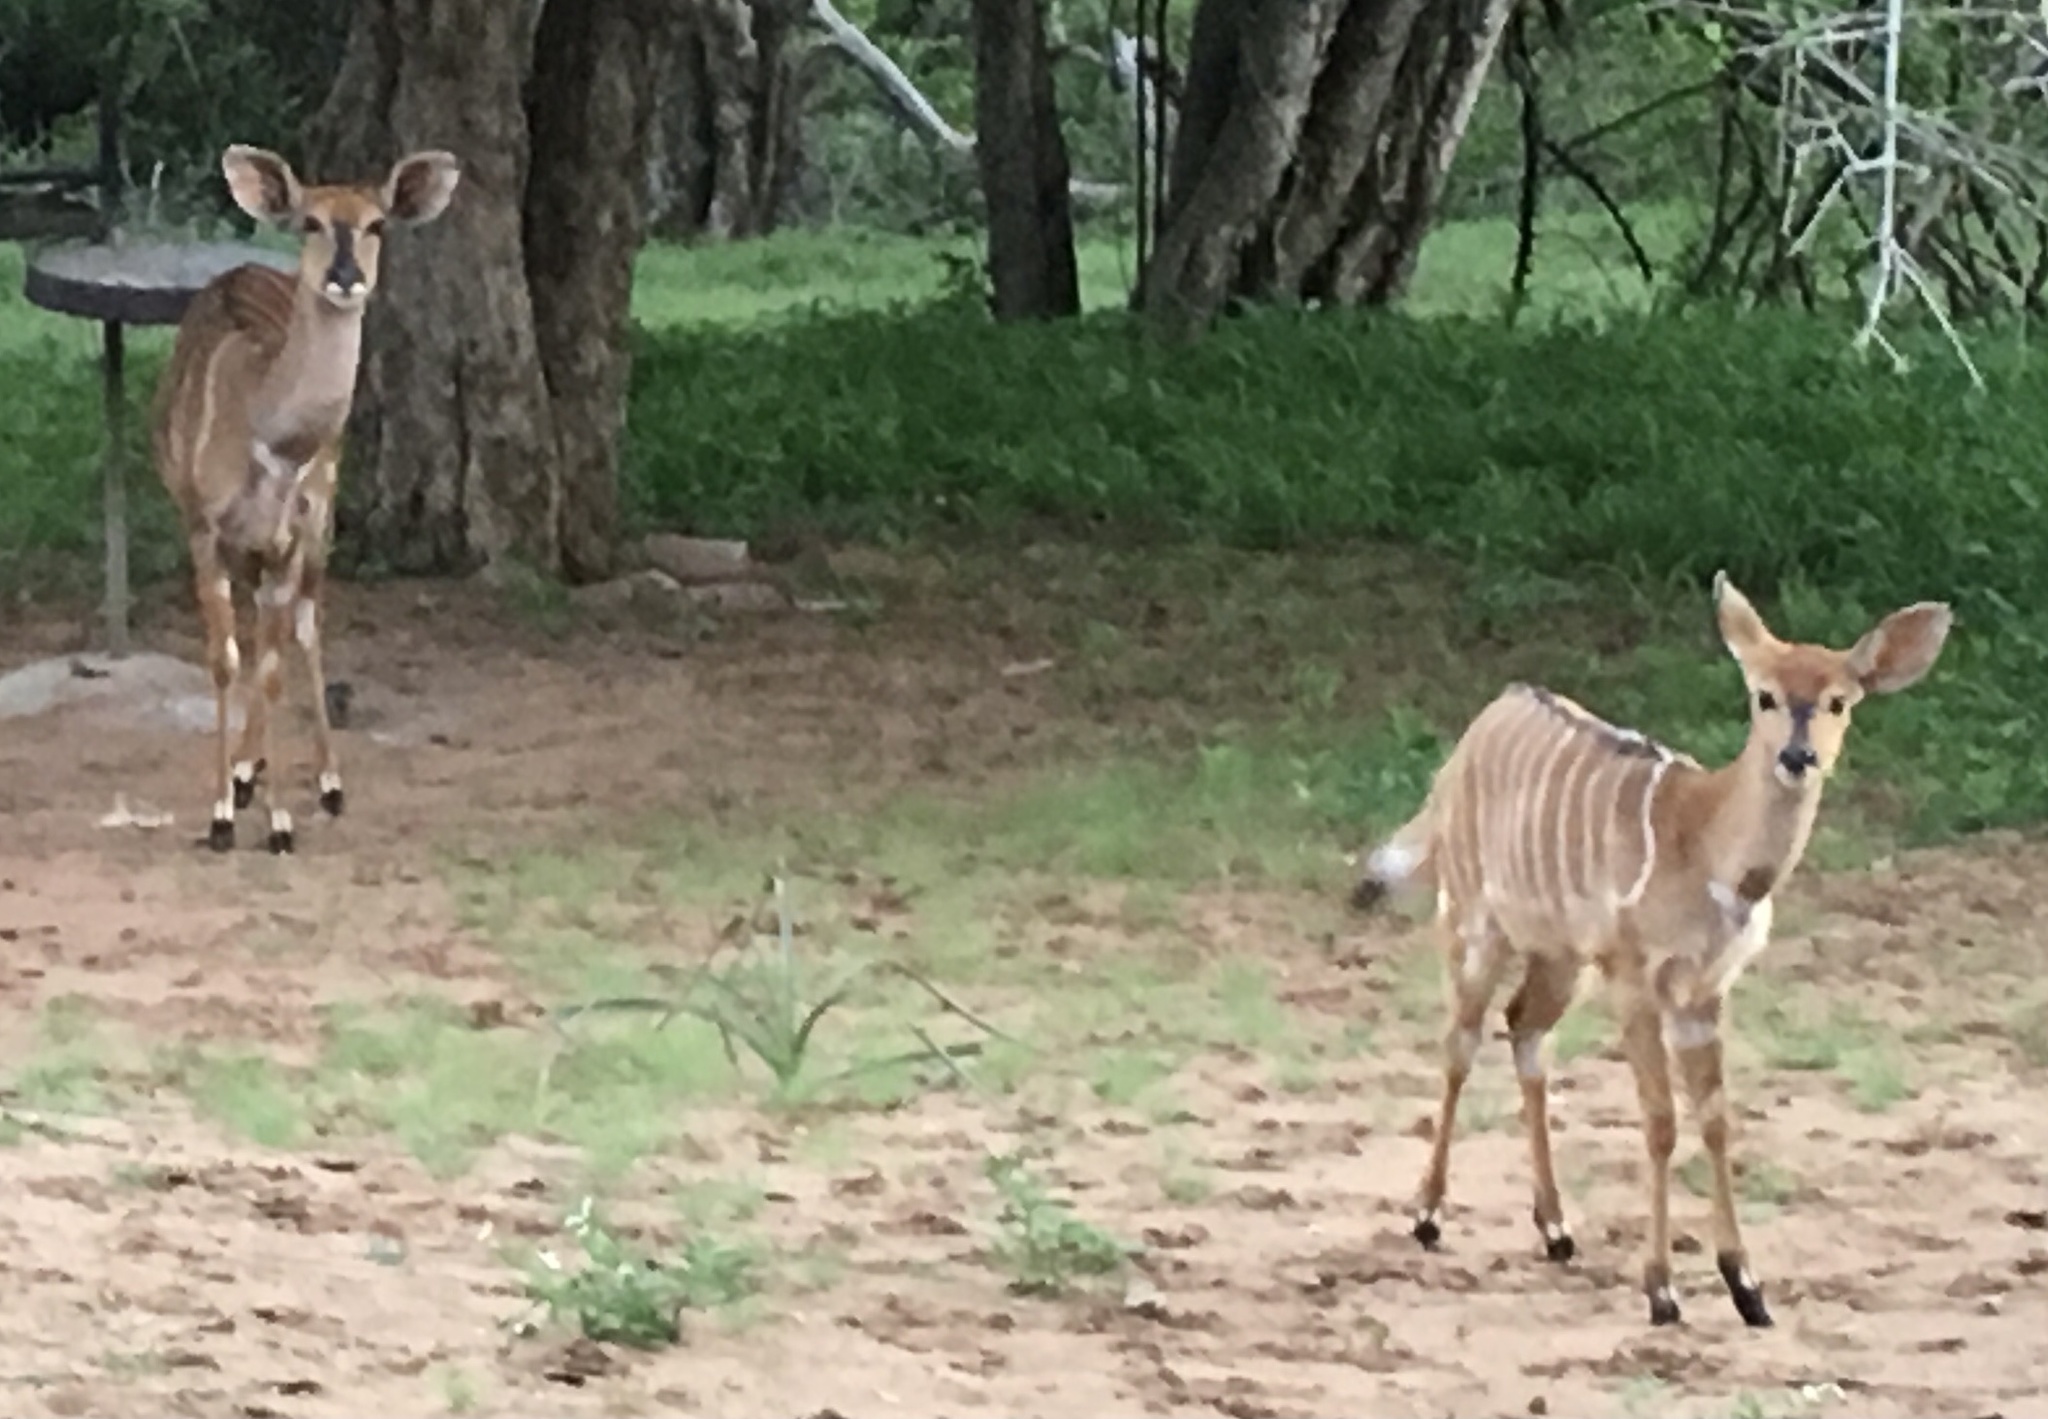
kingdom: Animalia
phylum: Chordata
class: Mammalia
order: Artiodactyla
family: Bovidae
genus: Tragelaphus
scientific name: Tragelaphus angasii
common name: Nyala
